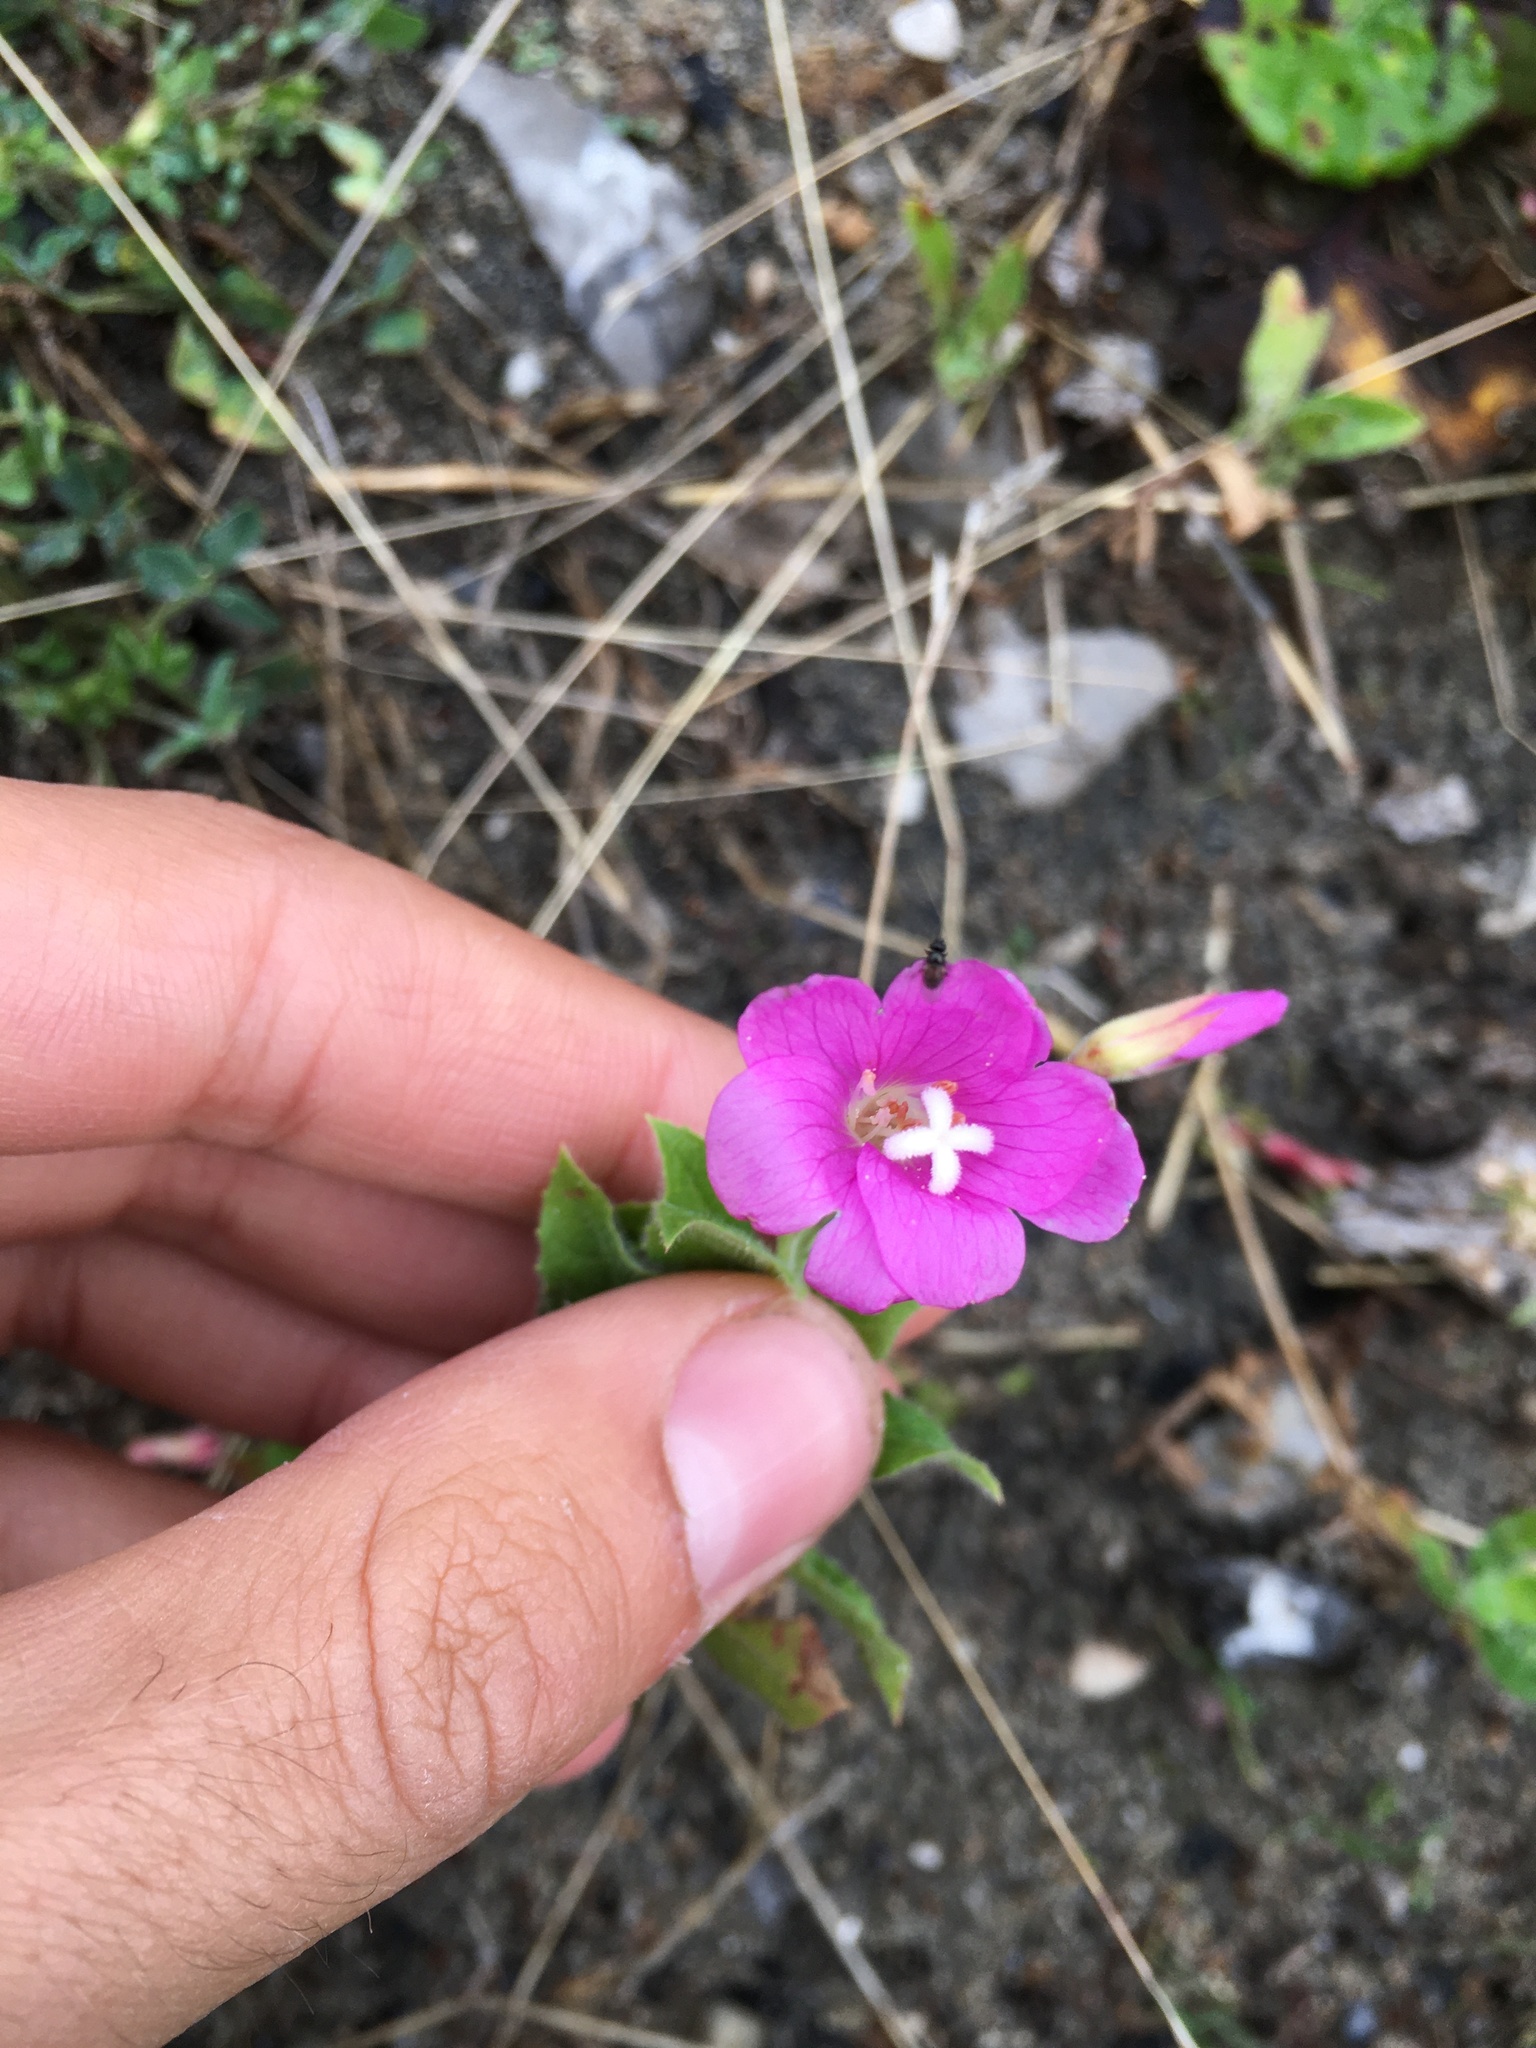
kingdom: Plantae
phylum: Tracheophyta
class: Magnoliopsida
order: Myrtales
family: Onagraceae
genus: Epilobium
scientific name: Epilobium hirsutum
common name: Great willowherb
